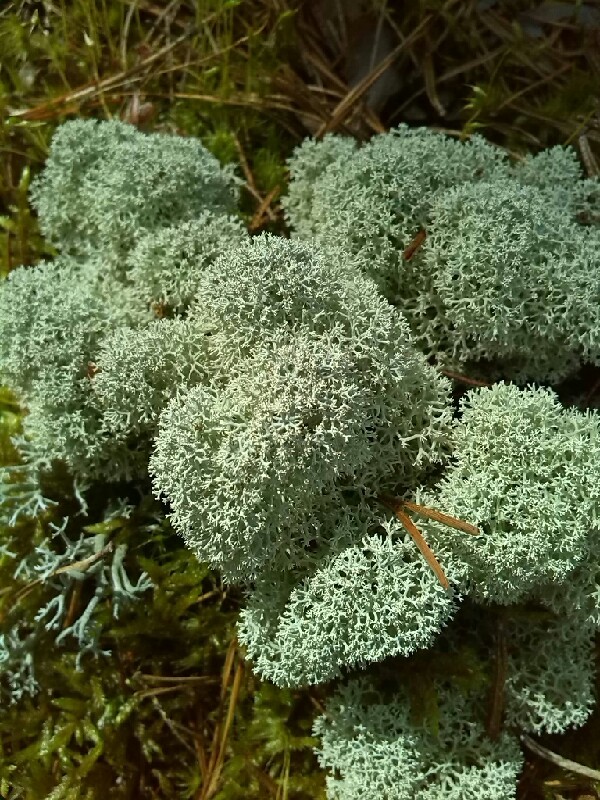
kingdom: Fungi
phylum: Ascomycota
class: Lecanoromycetes
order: Lecanorales
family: Cladoniaceae
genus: Cladonia
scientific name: Cladonia stellaris
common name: Star-tipped reindeer lichen
